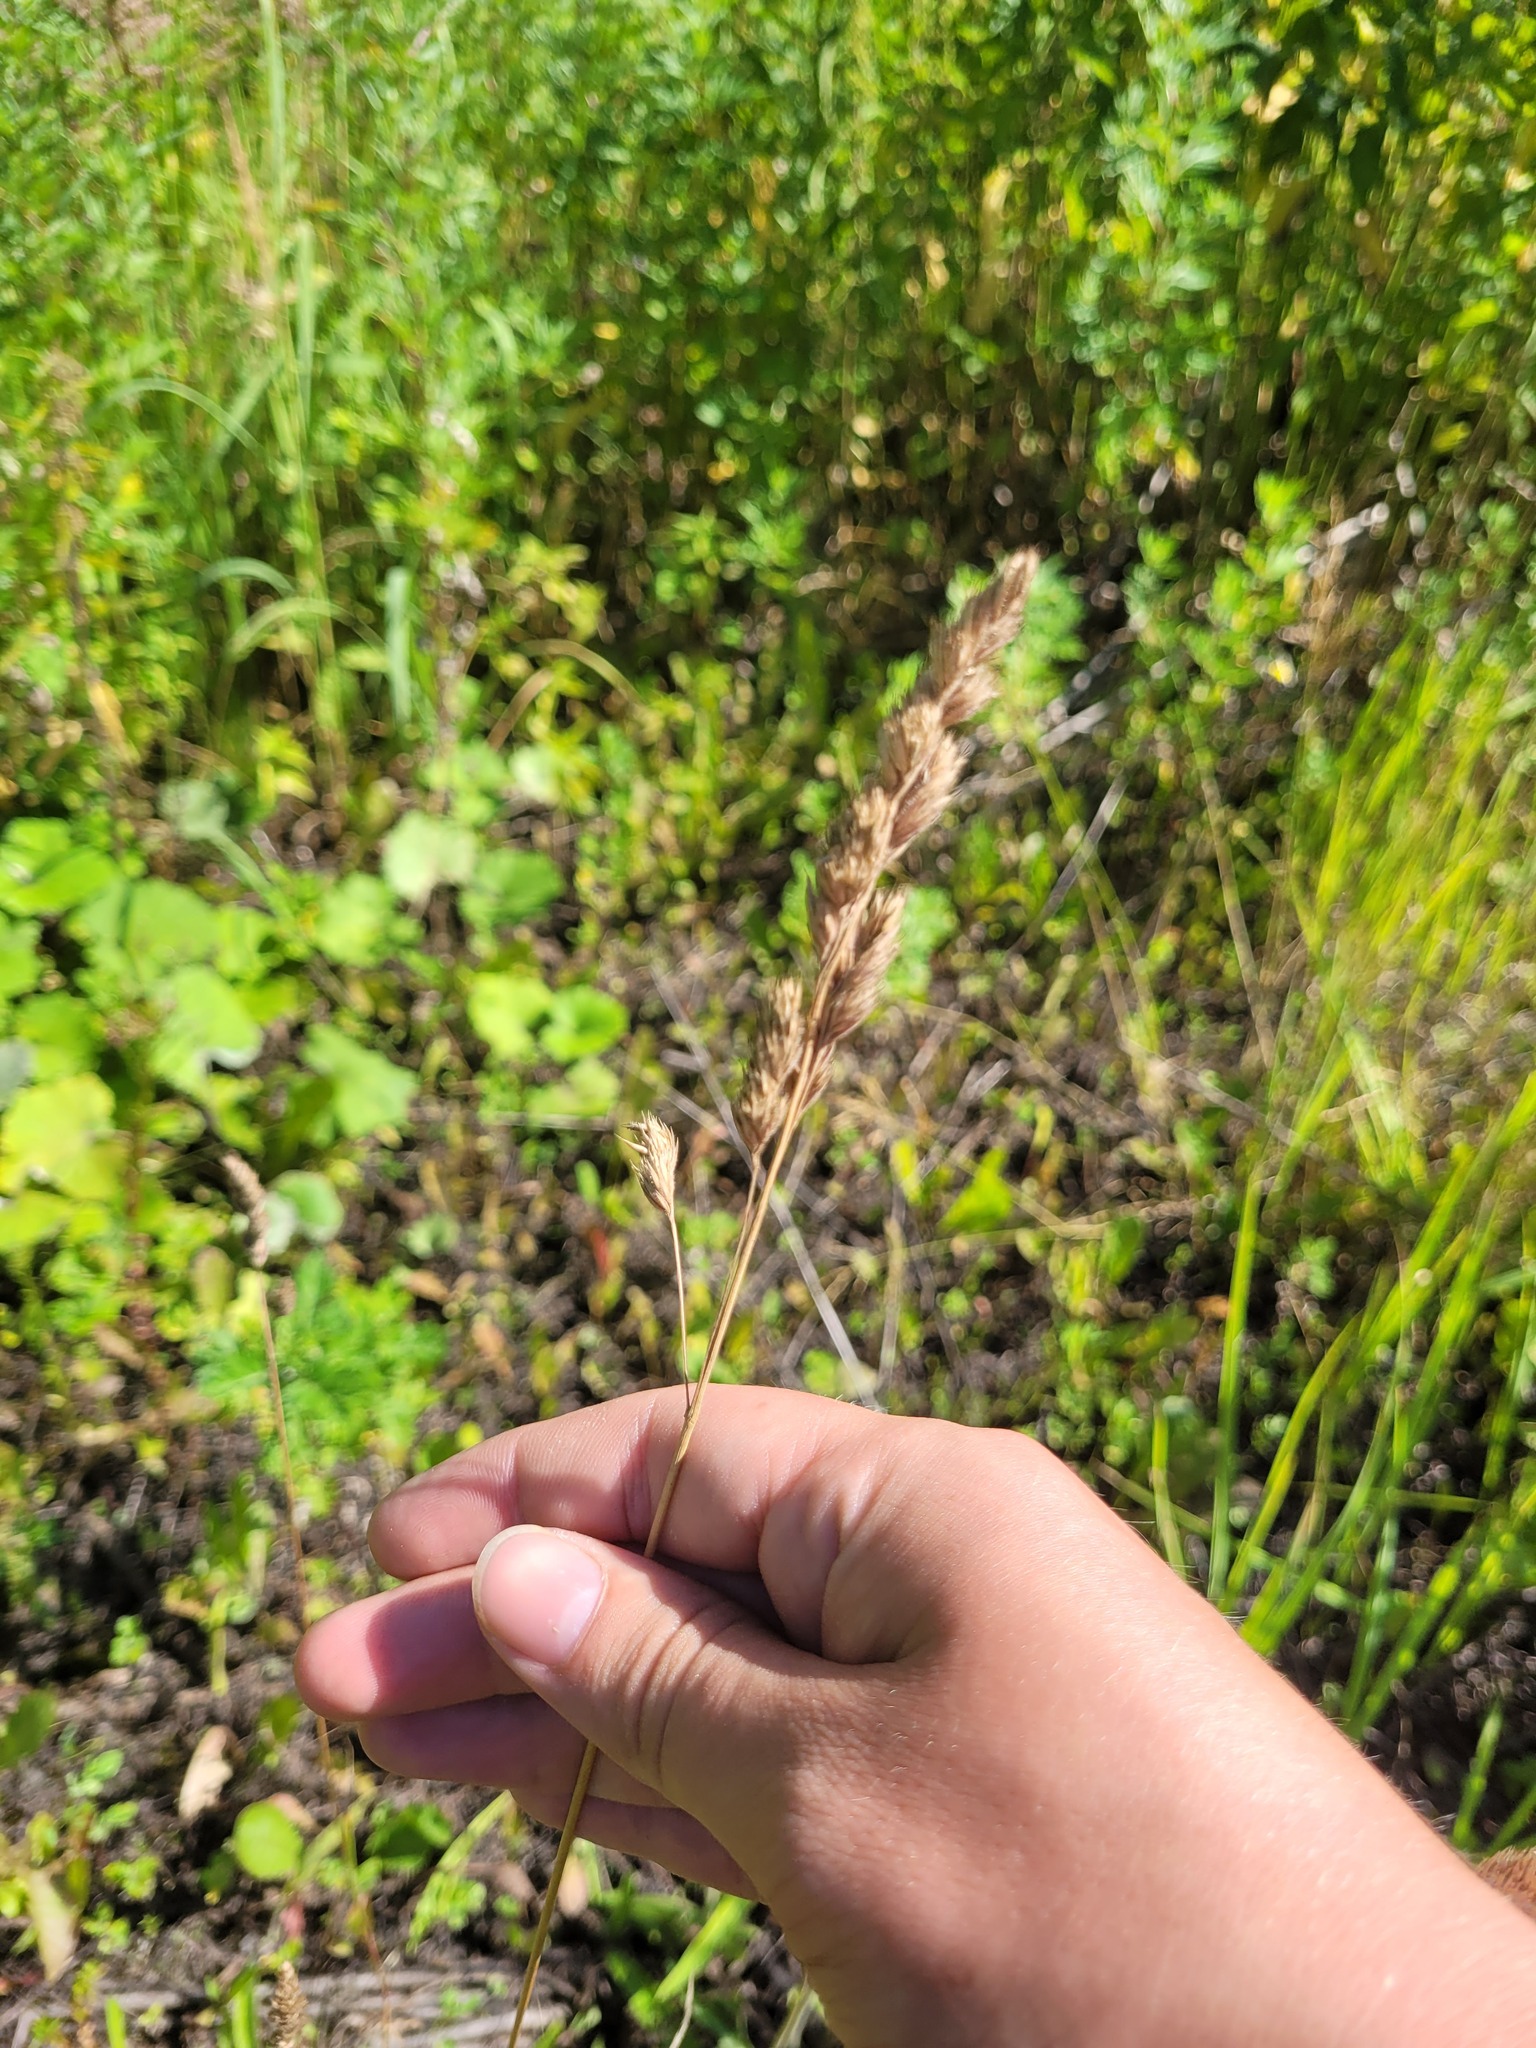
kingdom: Plantae
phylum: Tracheophyta
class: Liliopsida
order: Poales
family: Poaceae
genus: Dactylis
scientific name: Dactylis glomerata
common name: Orchardgrass
